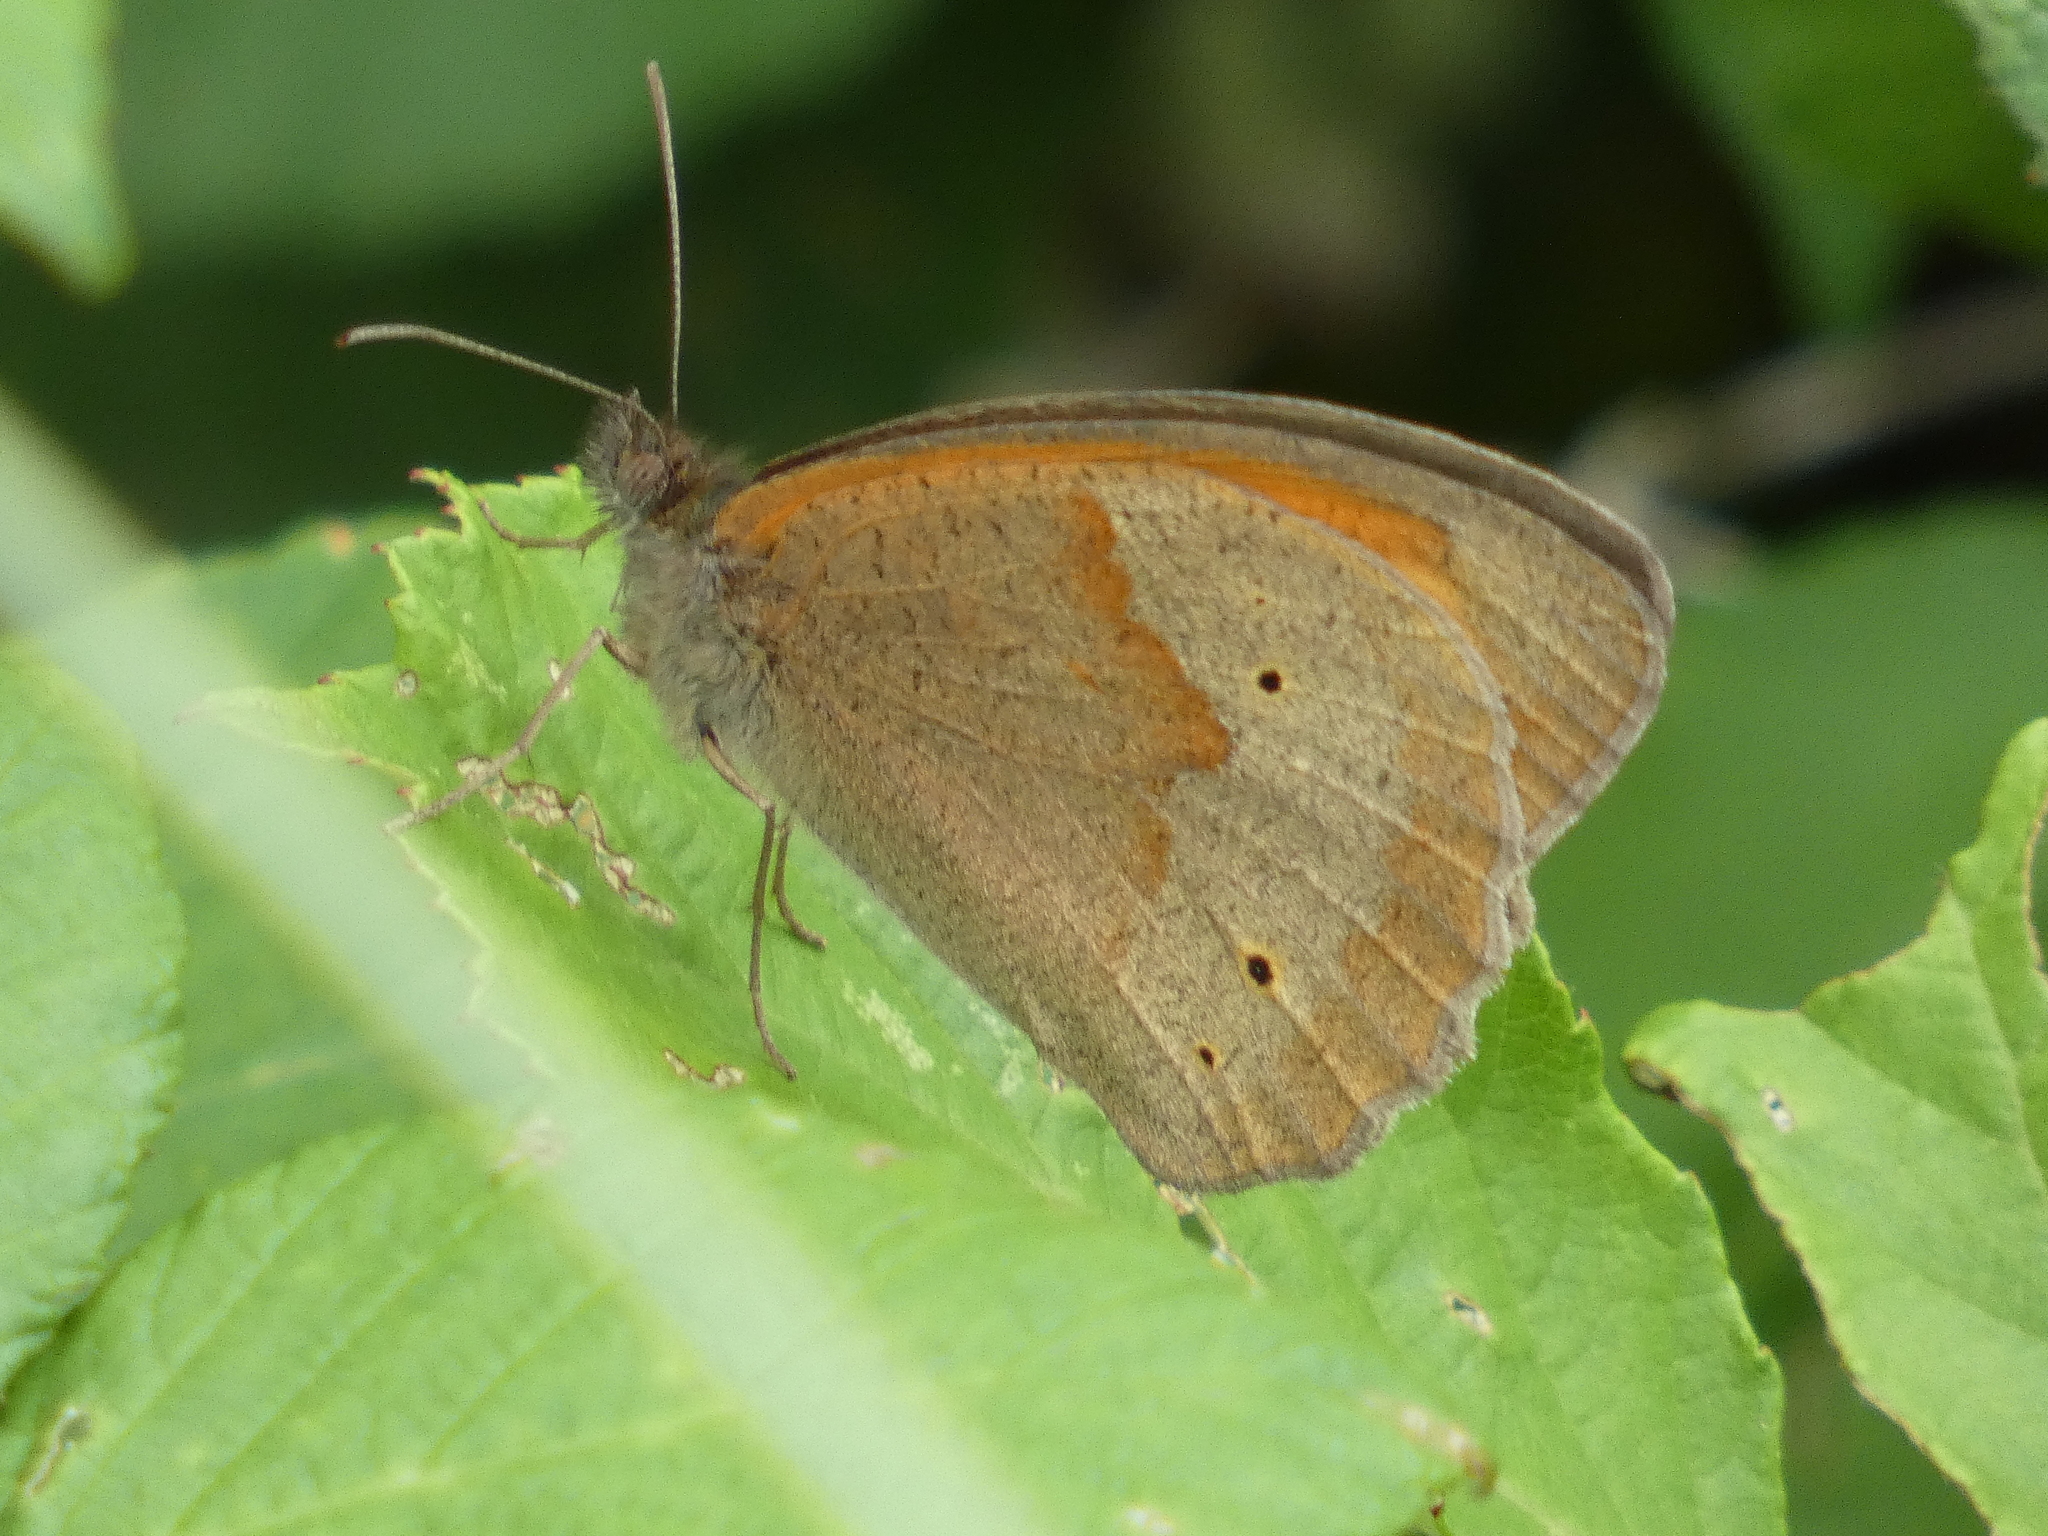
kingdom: Animalia
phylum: Arthropoda
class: Insecta
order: Lepidoptera
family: Nymphalidae
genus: Maniola
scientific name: Maniola jurtina
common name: Meadow brown
